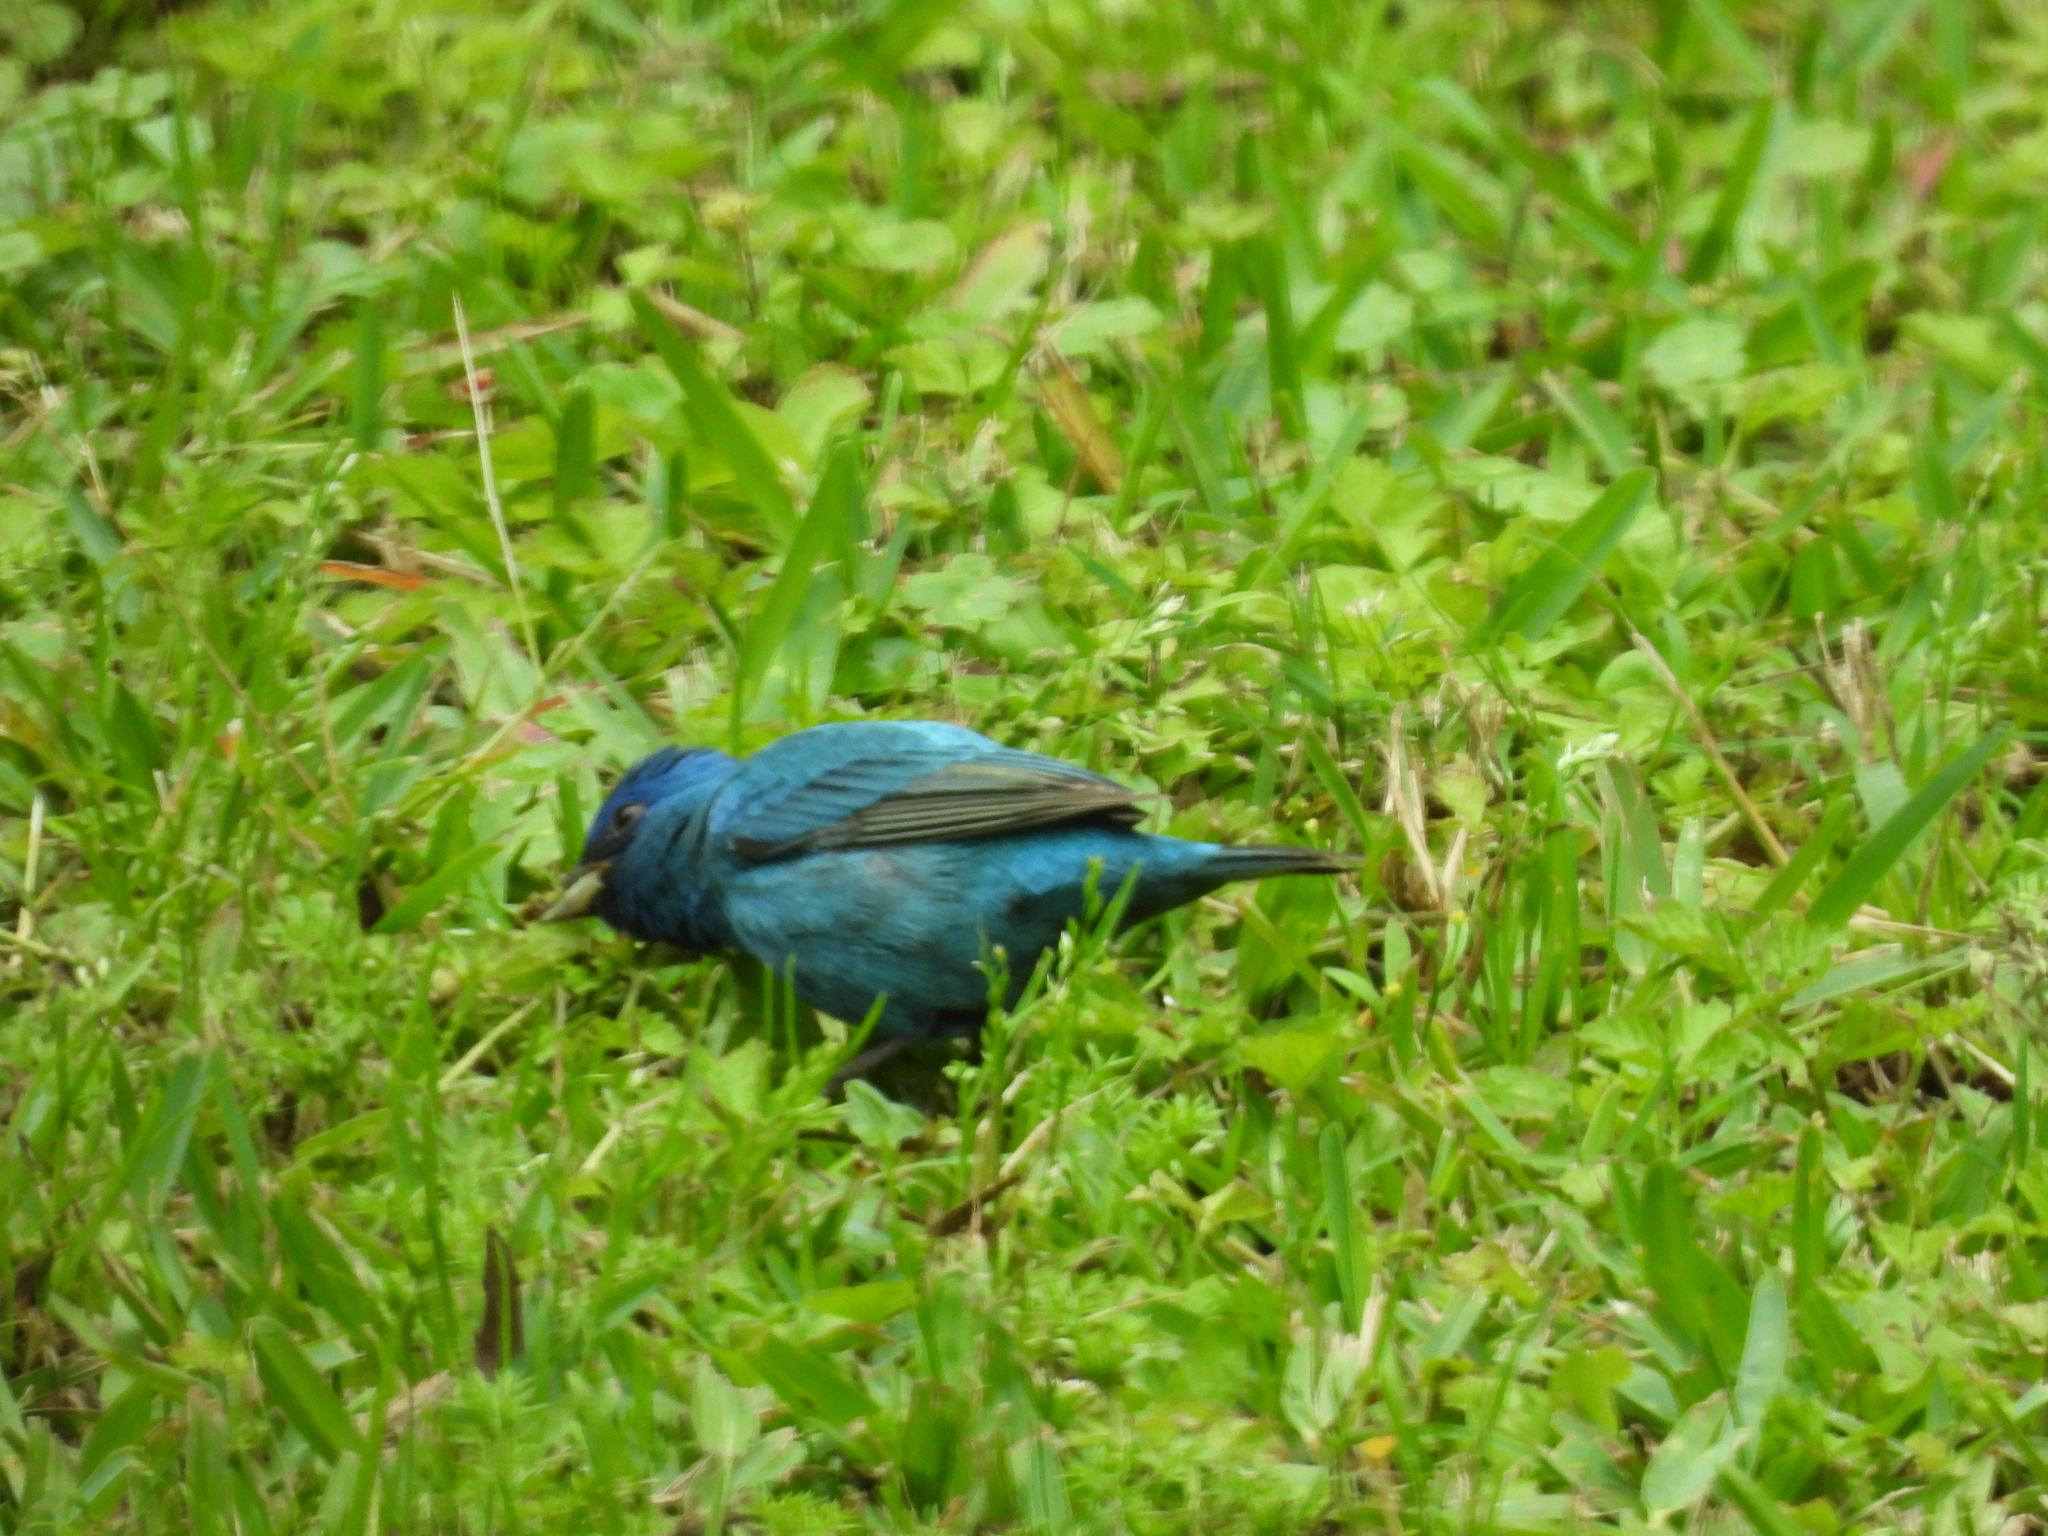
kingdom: Animalia
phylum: Chordata
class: Aves
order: Passeriformes
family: Cardinalidae
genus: Passerina
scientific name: Passerina cyanea
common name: Indigo bunting
